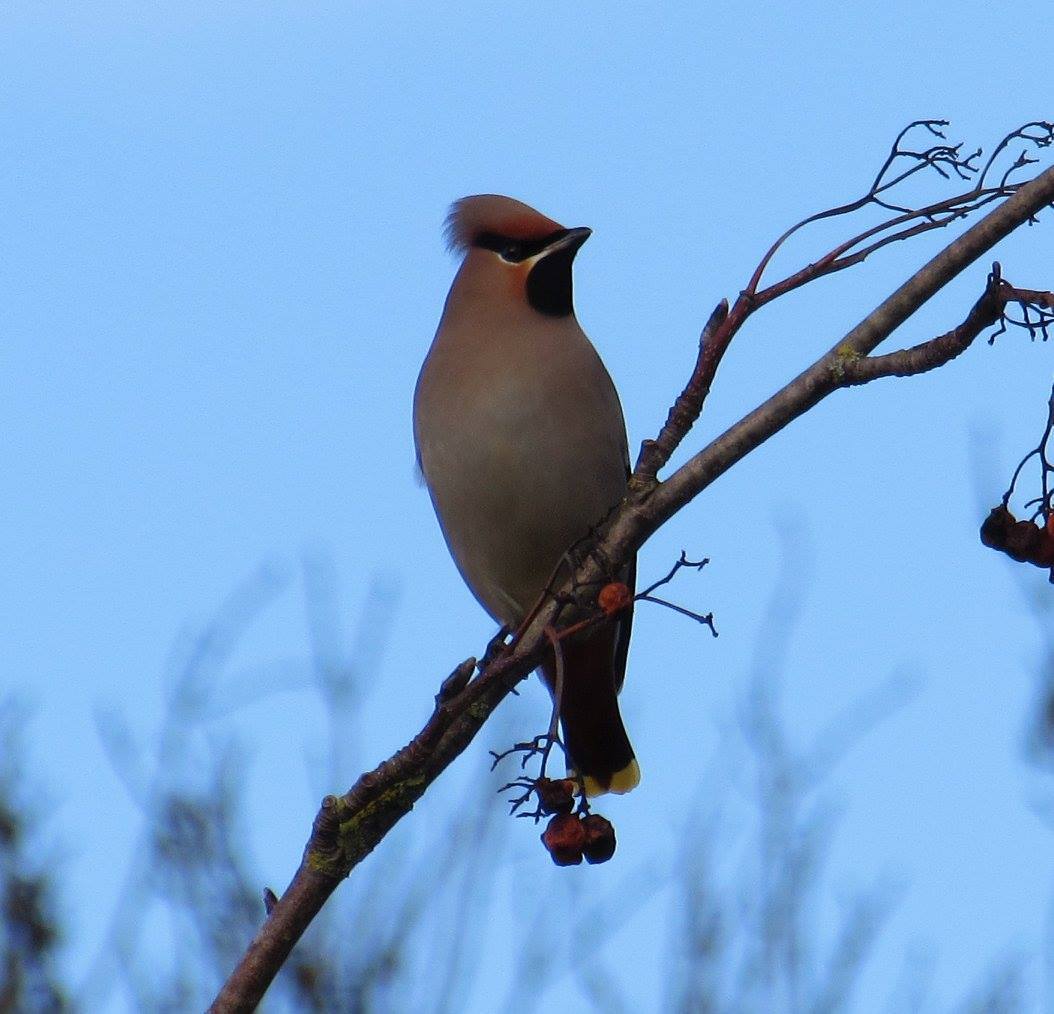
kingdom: Animalia
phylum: Chordata
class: Aves
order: Passeriformes
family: Bombycillidae
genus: Bombycilla
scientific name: Bombycilla garrulus
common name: Bohemian waxwing
